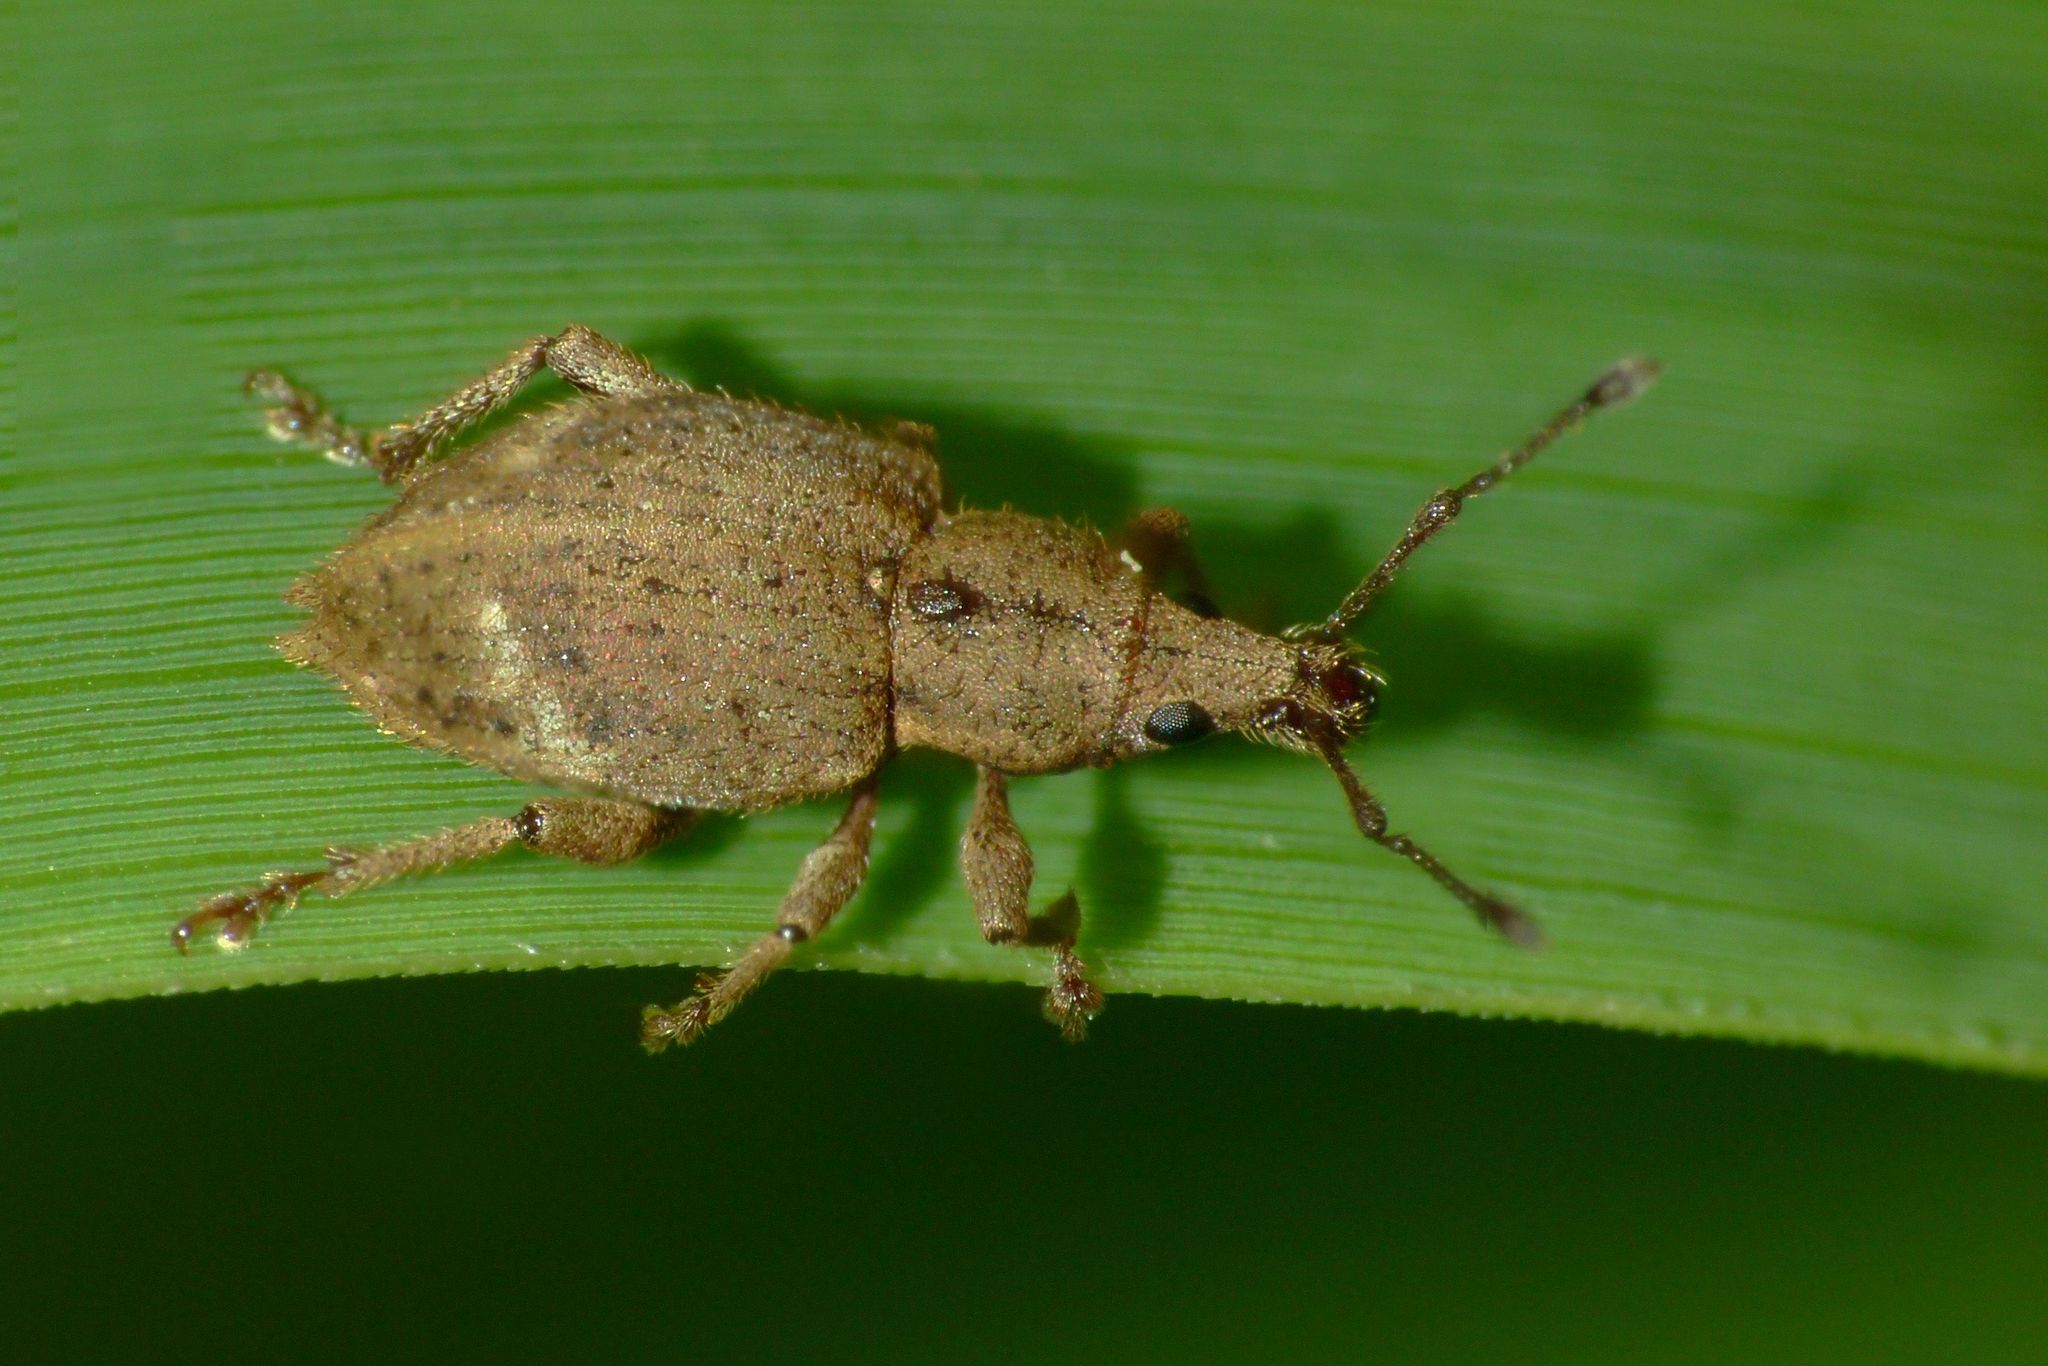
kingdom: Animalia
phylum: Arthropoda
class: Insecta
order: Coleoptera
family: Curculionidae
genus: Catoptes
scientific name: Catoptes cuspidatus
